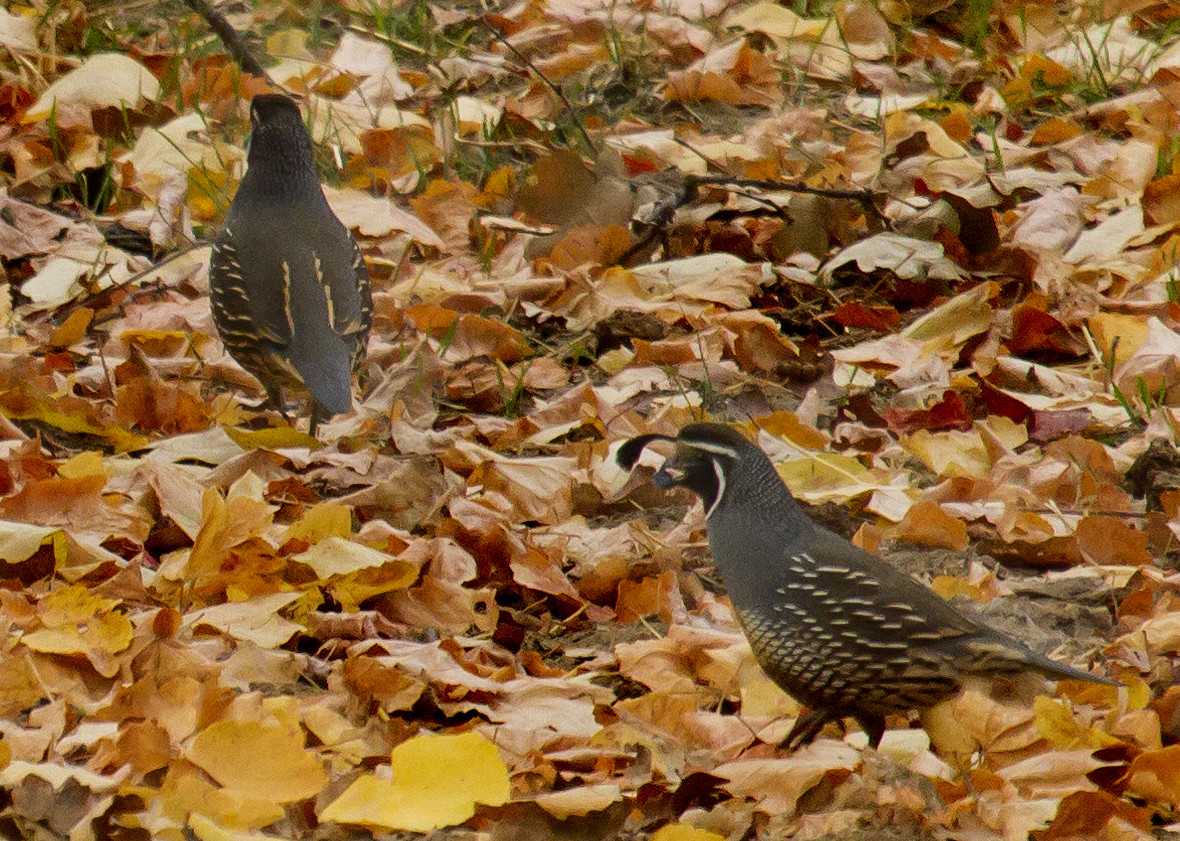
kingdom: Animalia
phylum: Chordata
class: Aves
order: Galliformes
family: Odontophoridae
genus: Callipepla
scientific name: Callipepla californica
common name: California quail
